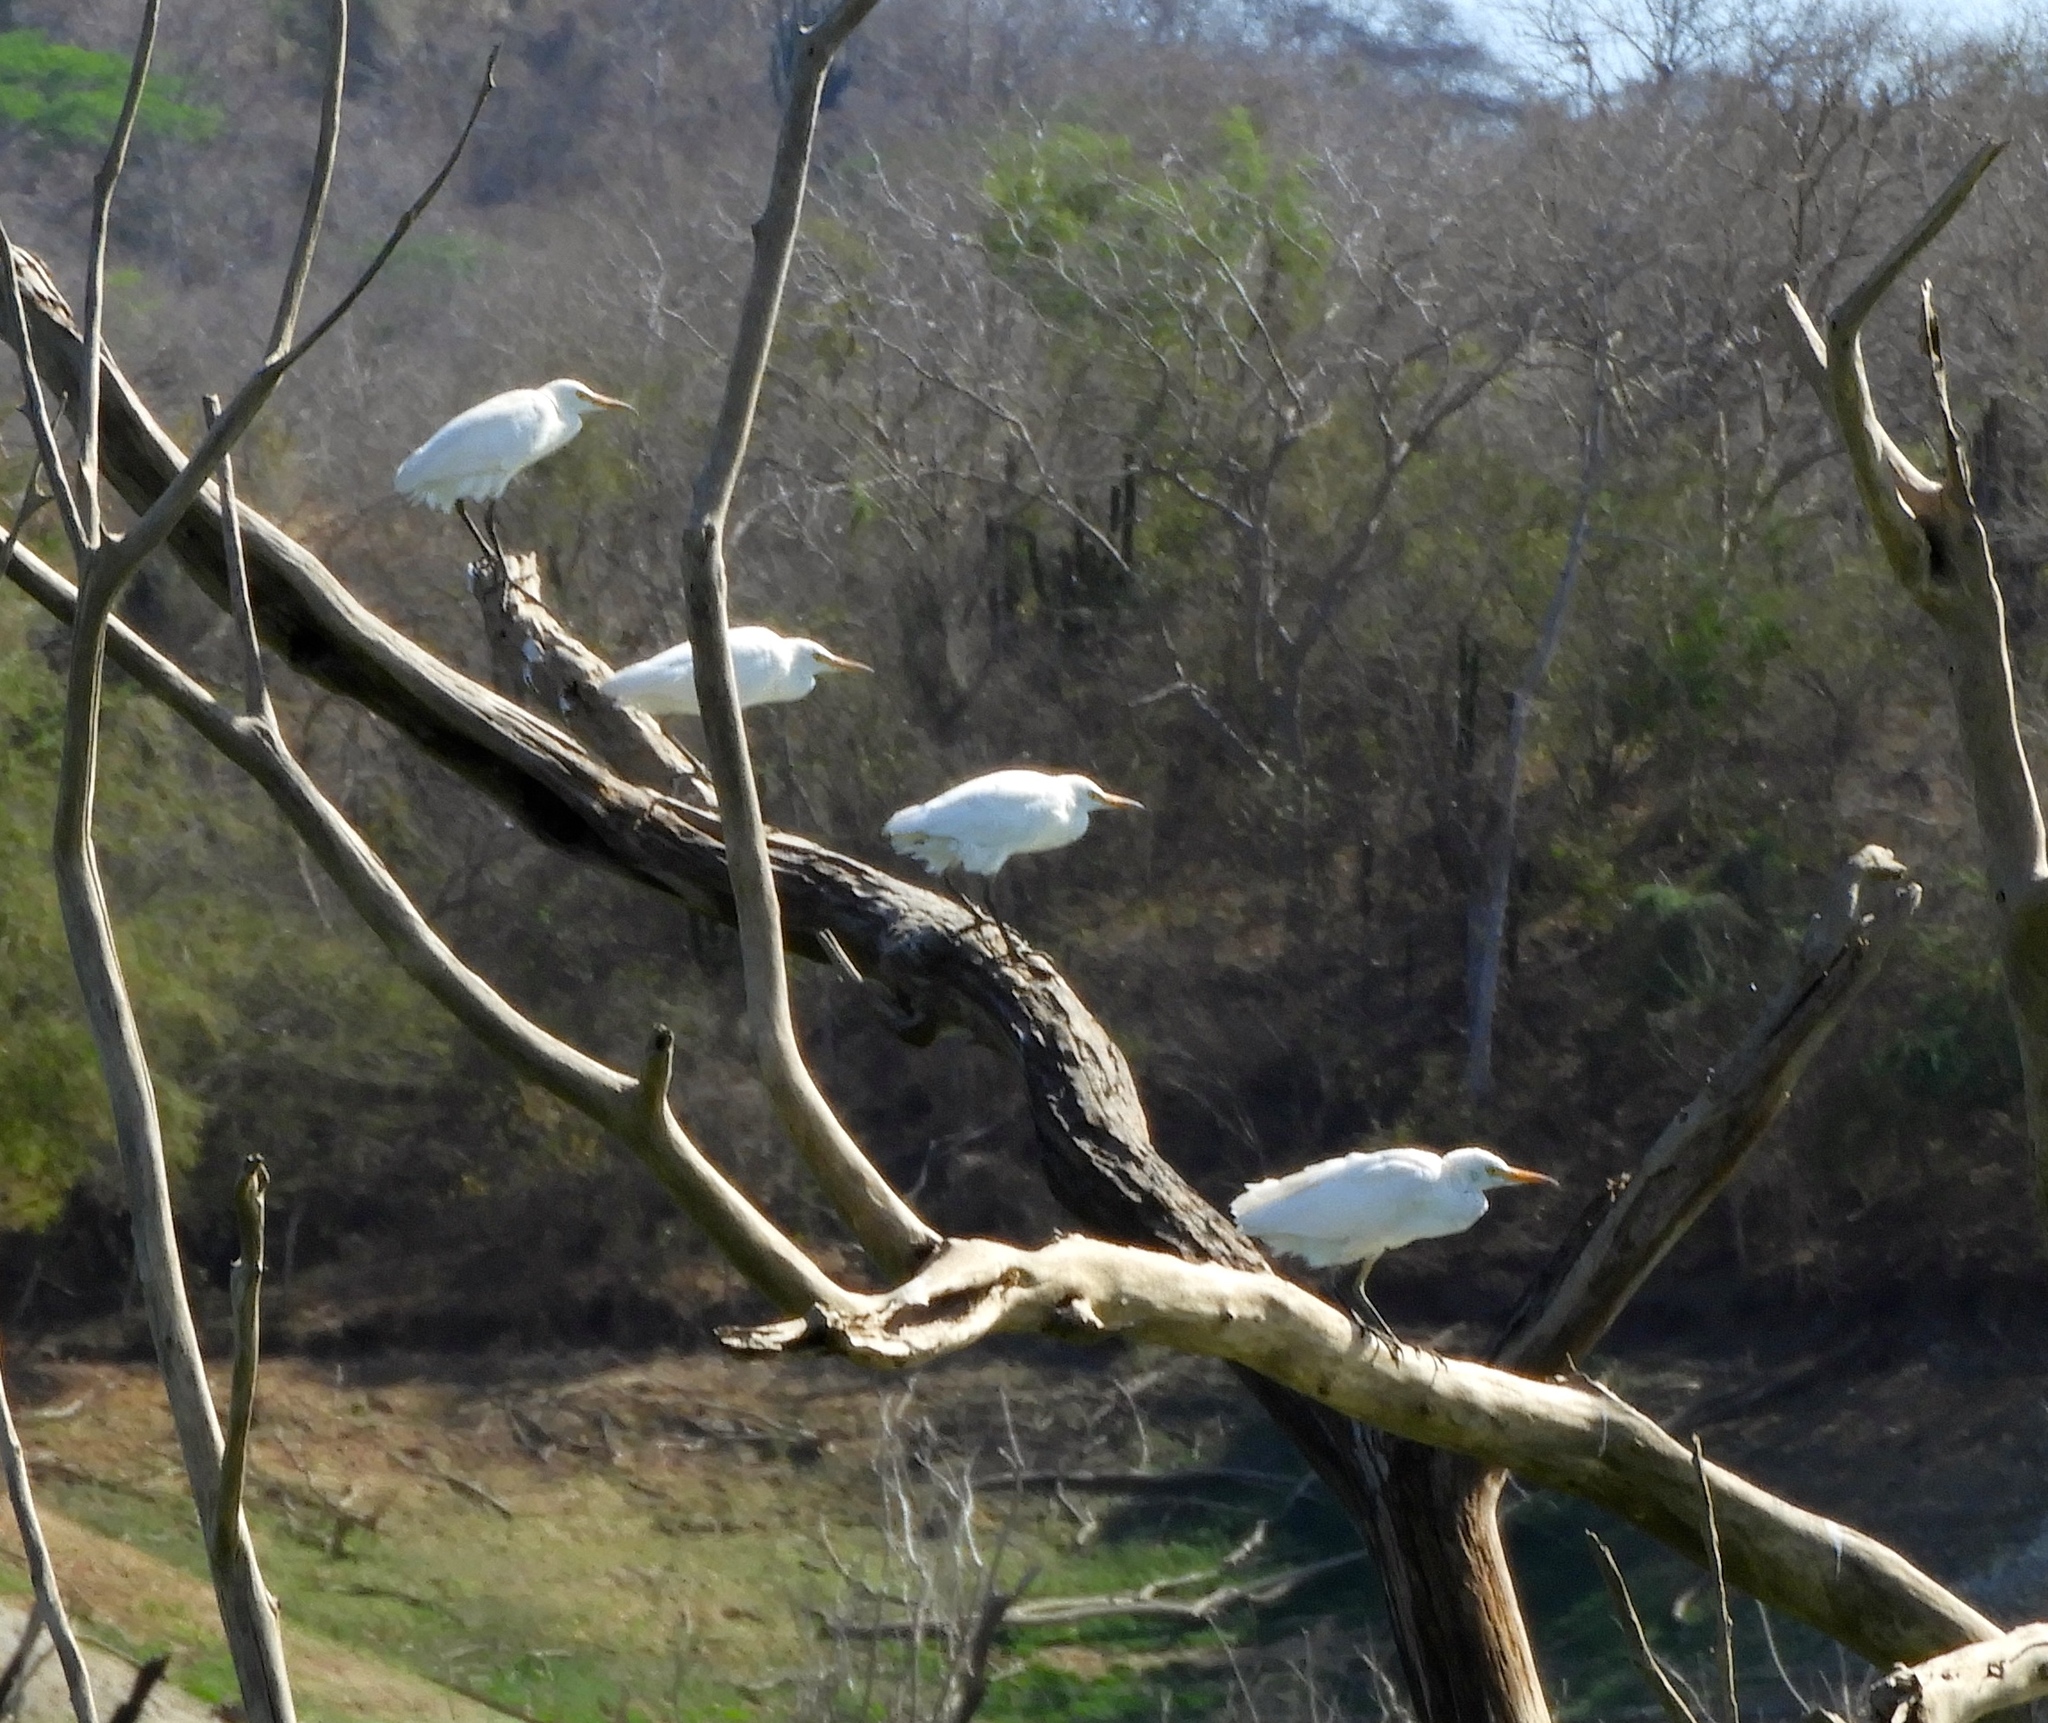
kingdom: Animalia
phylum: Chordata
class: Aves
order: Pelecaniformes
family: Ardeidae
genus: Bubulcus
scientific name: Bubulcus ibis
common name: Cattle egret
